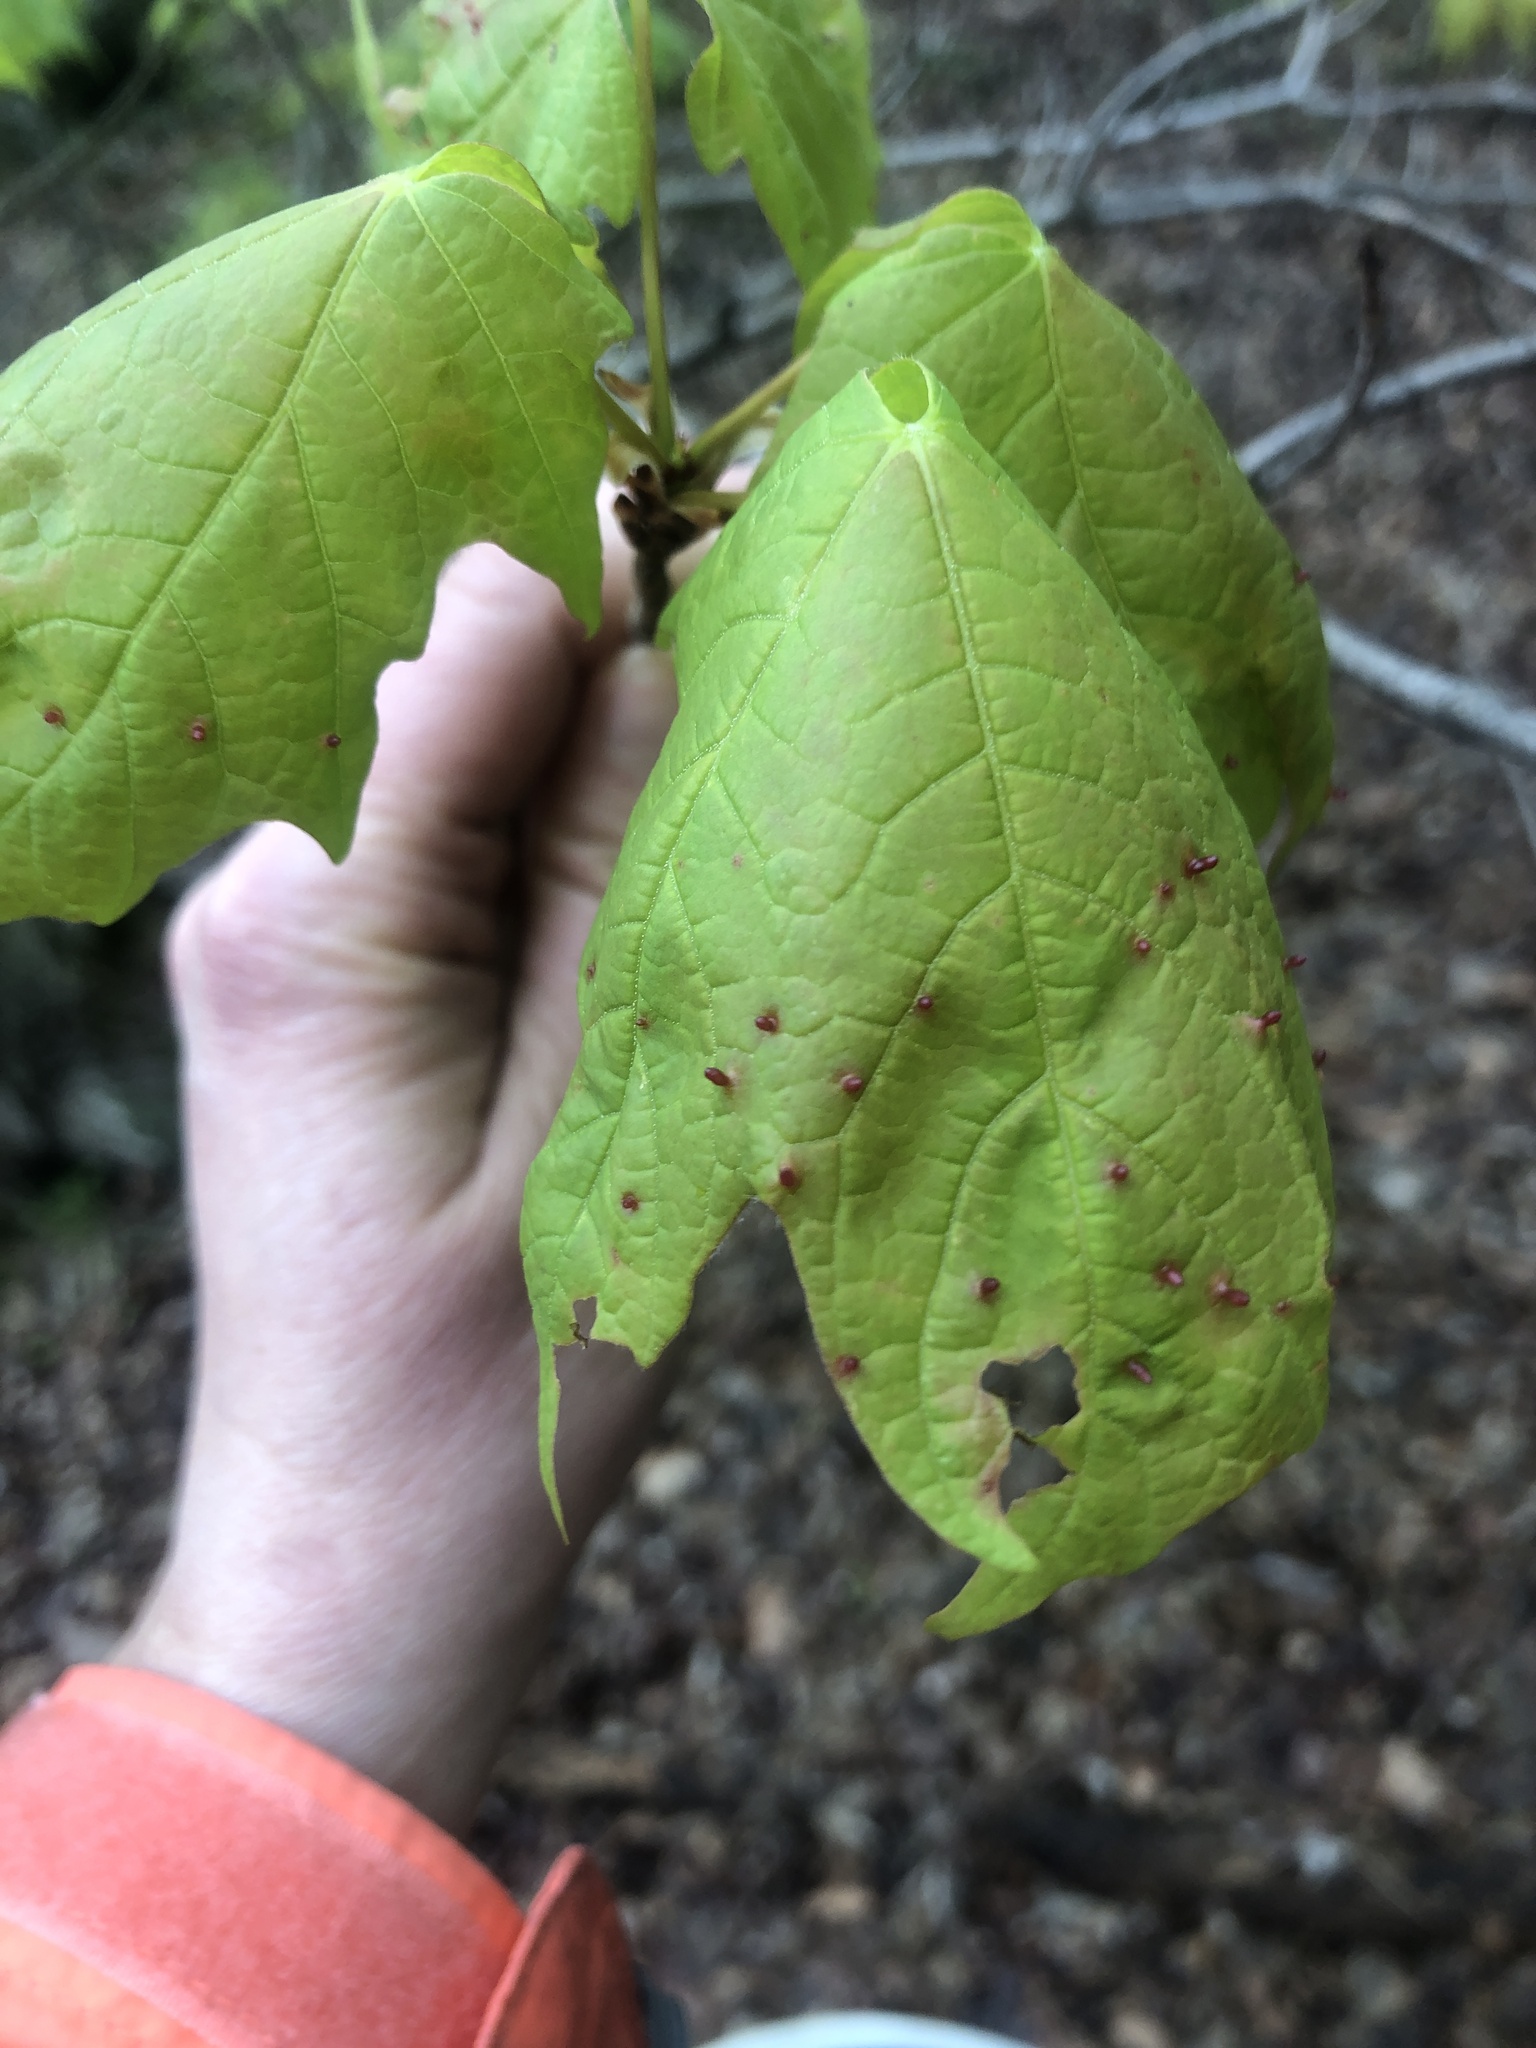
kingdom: Animalia
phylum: Arthropoda
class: Arachnida
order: Trombidiformes
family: Eriophyidae
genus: Vasates
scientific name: Vasates aceriscrumena
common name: Maple spindle gall mite
